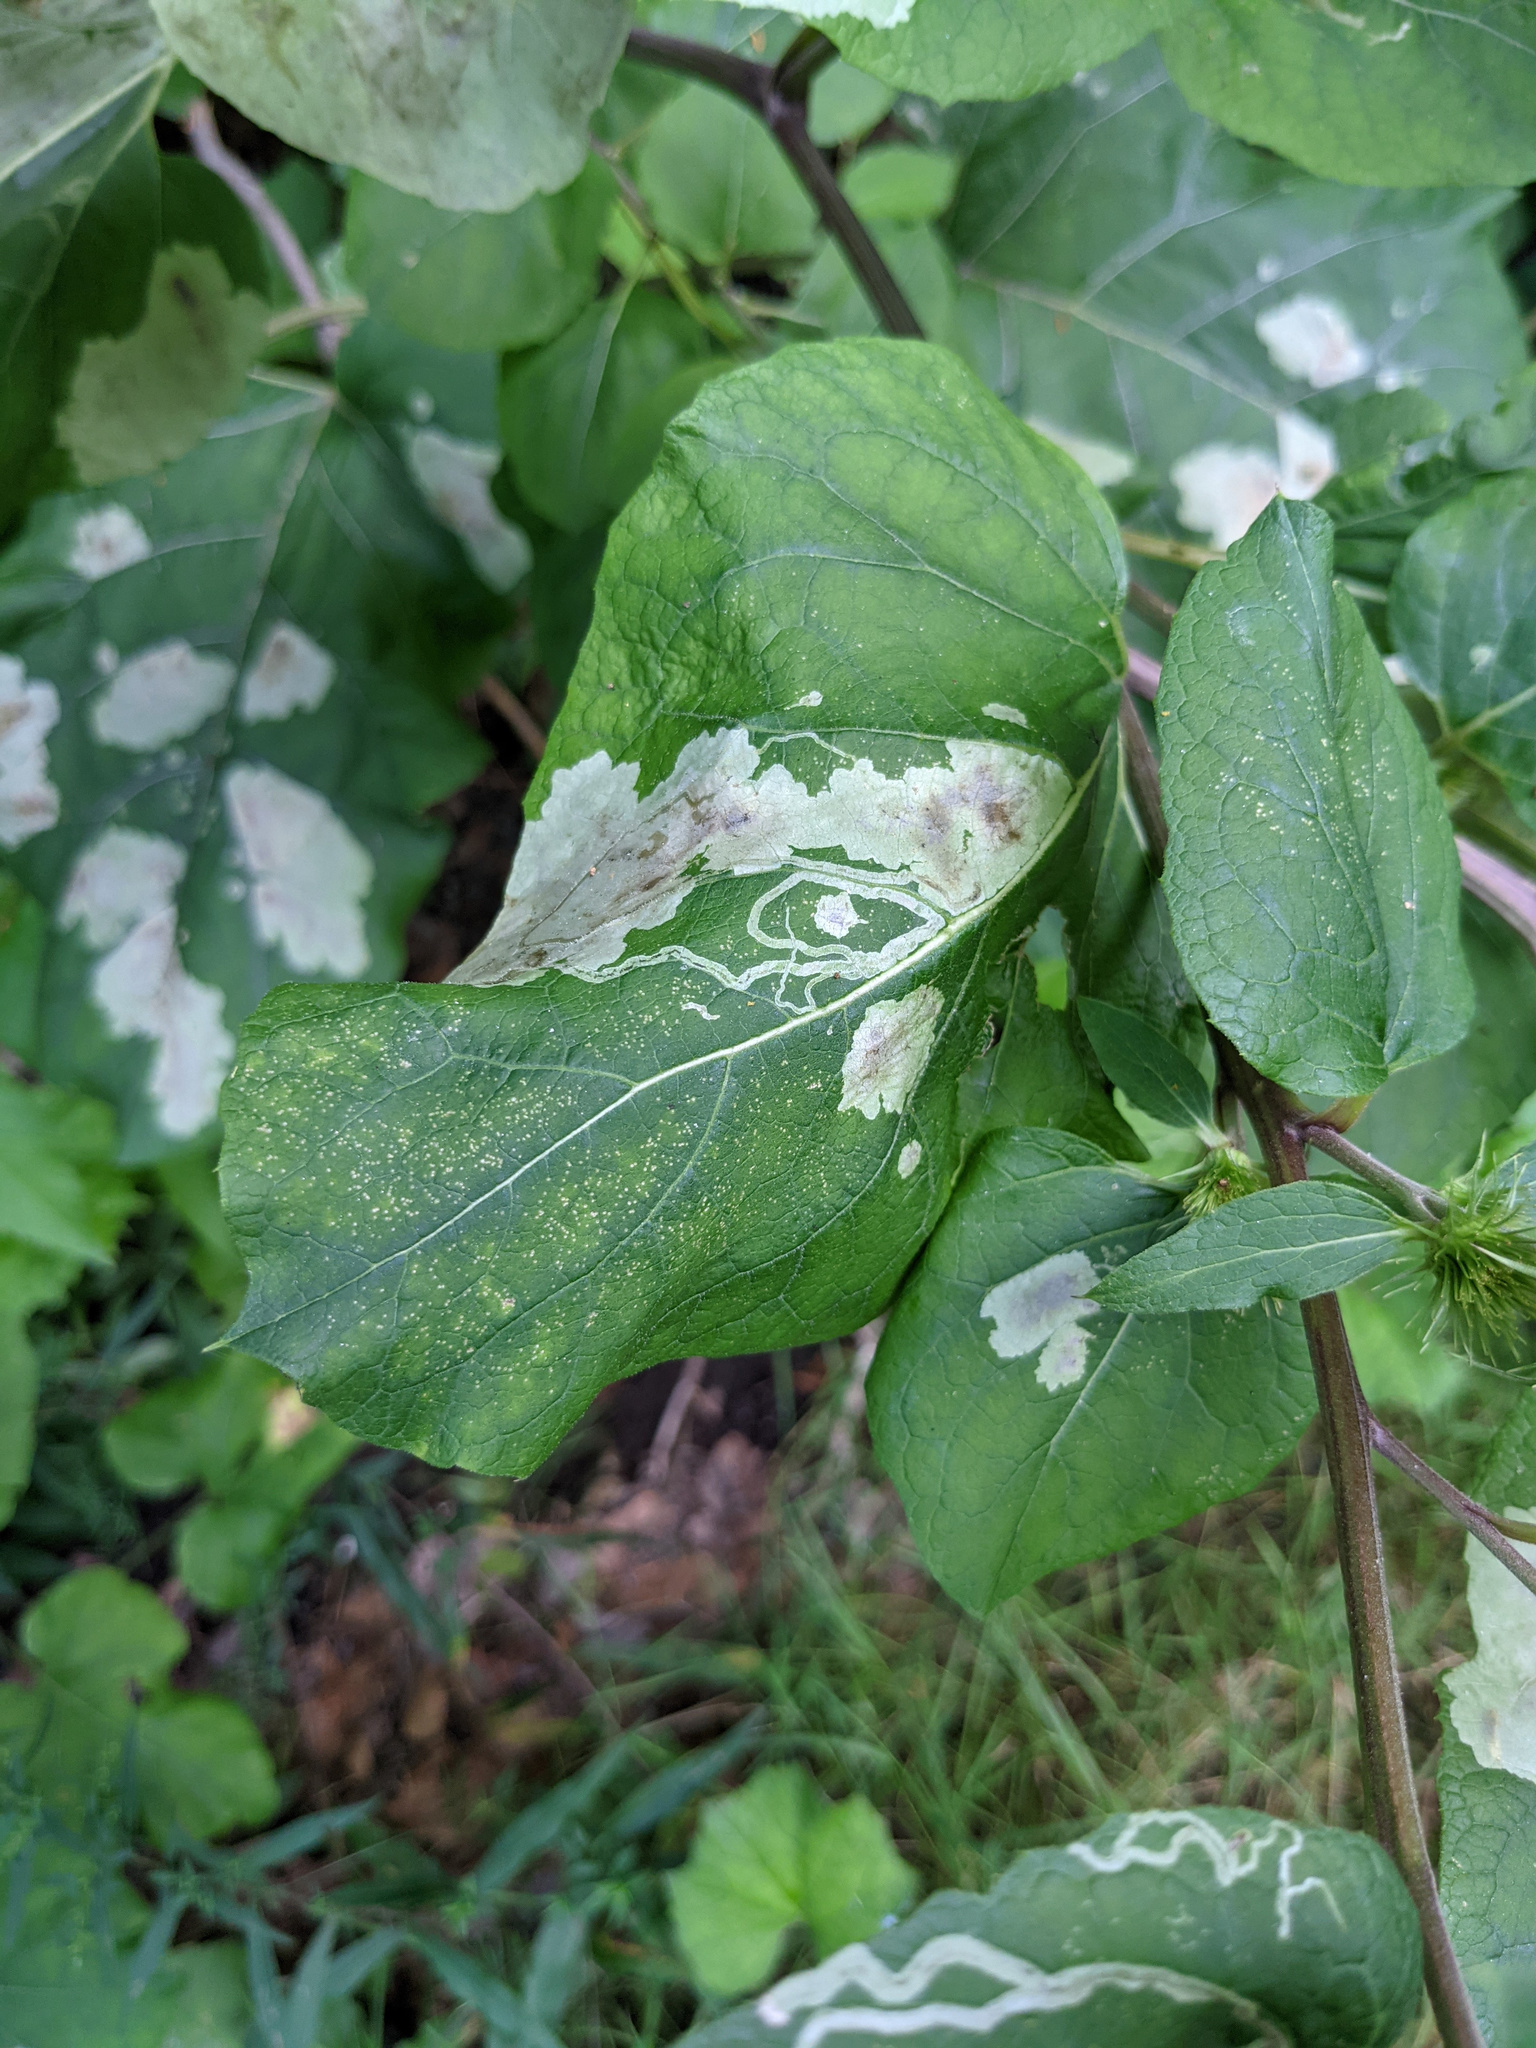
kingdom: Animalia
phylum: Arthropoda
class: Insecta
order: Diptera
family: Agromyzidae
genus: Liriomyza
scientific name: Liriomyza arctii
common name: Burdock leafminer
